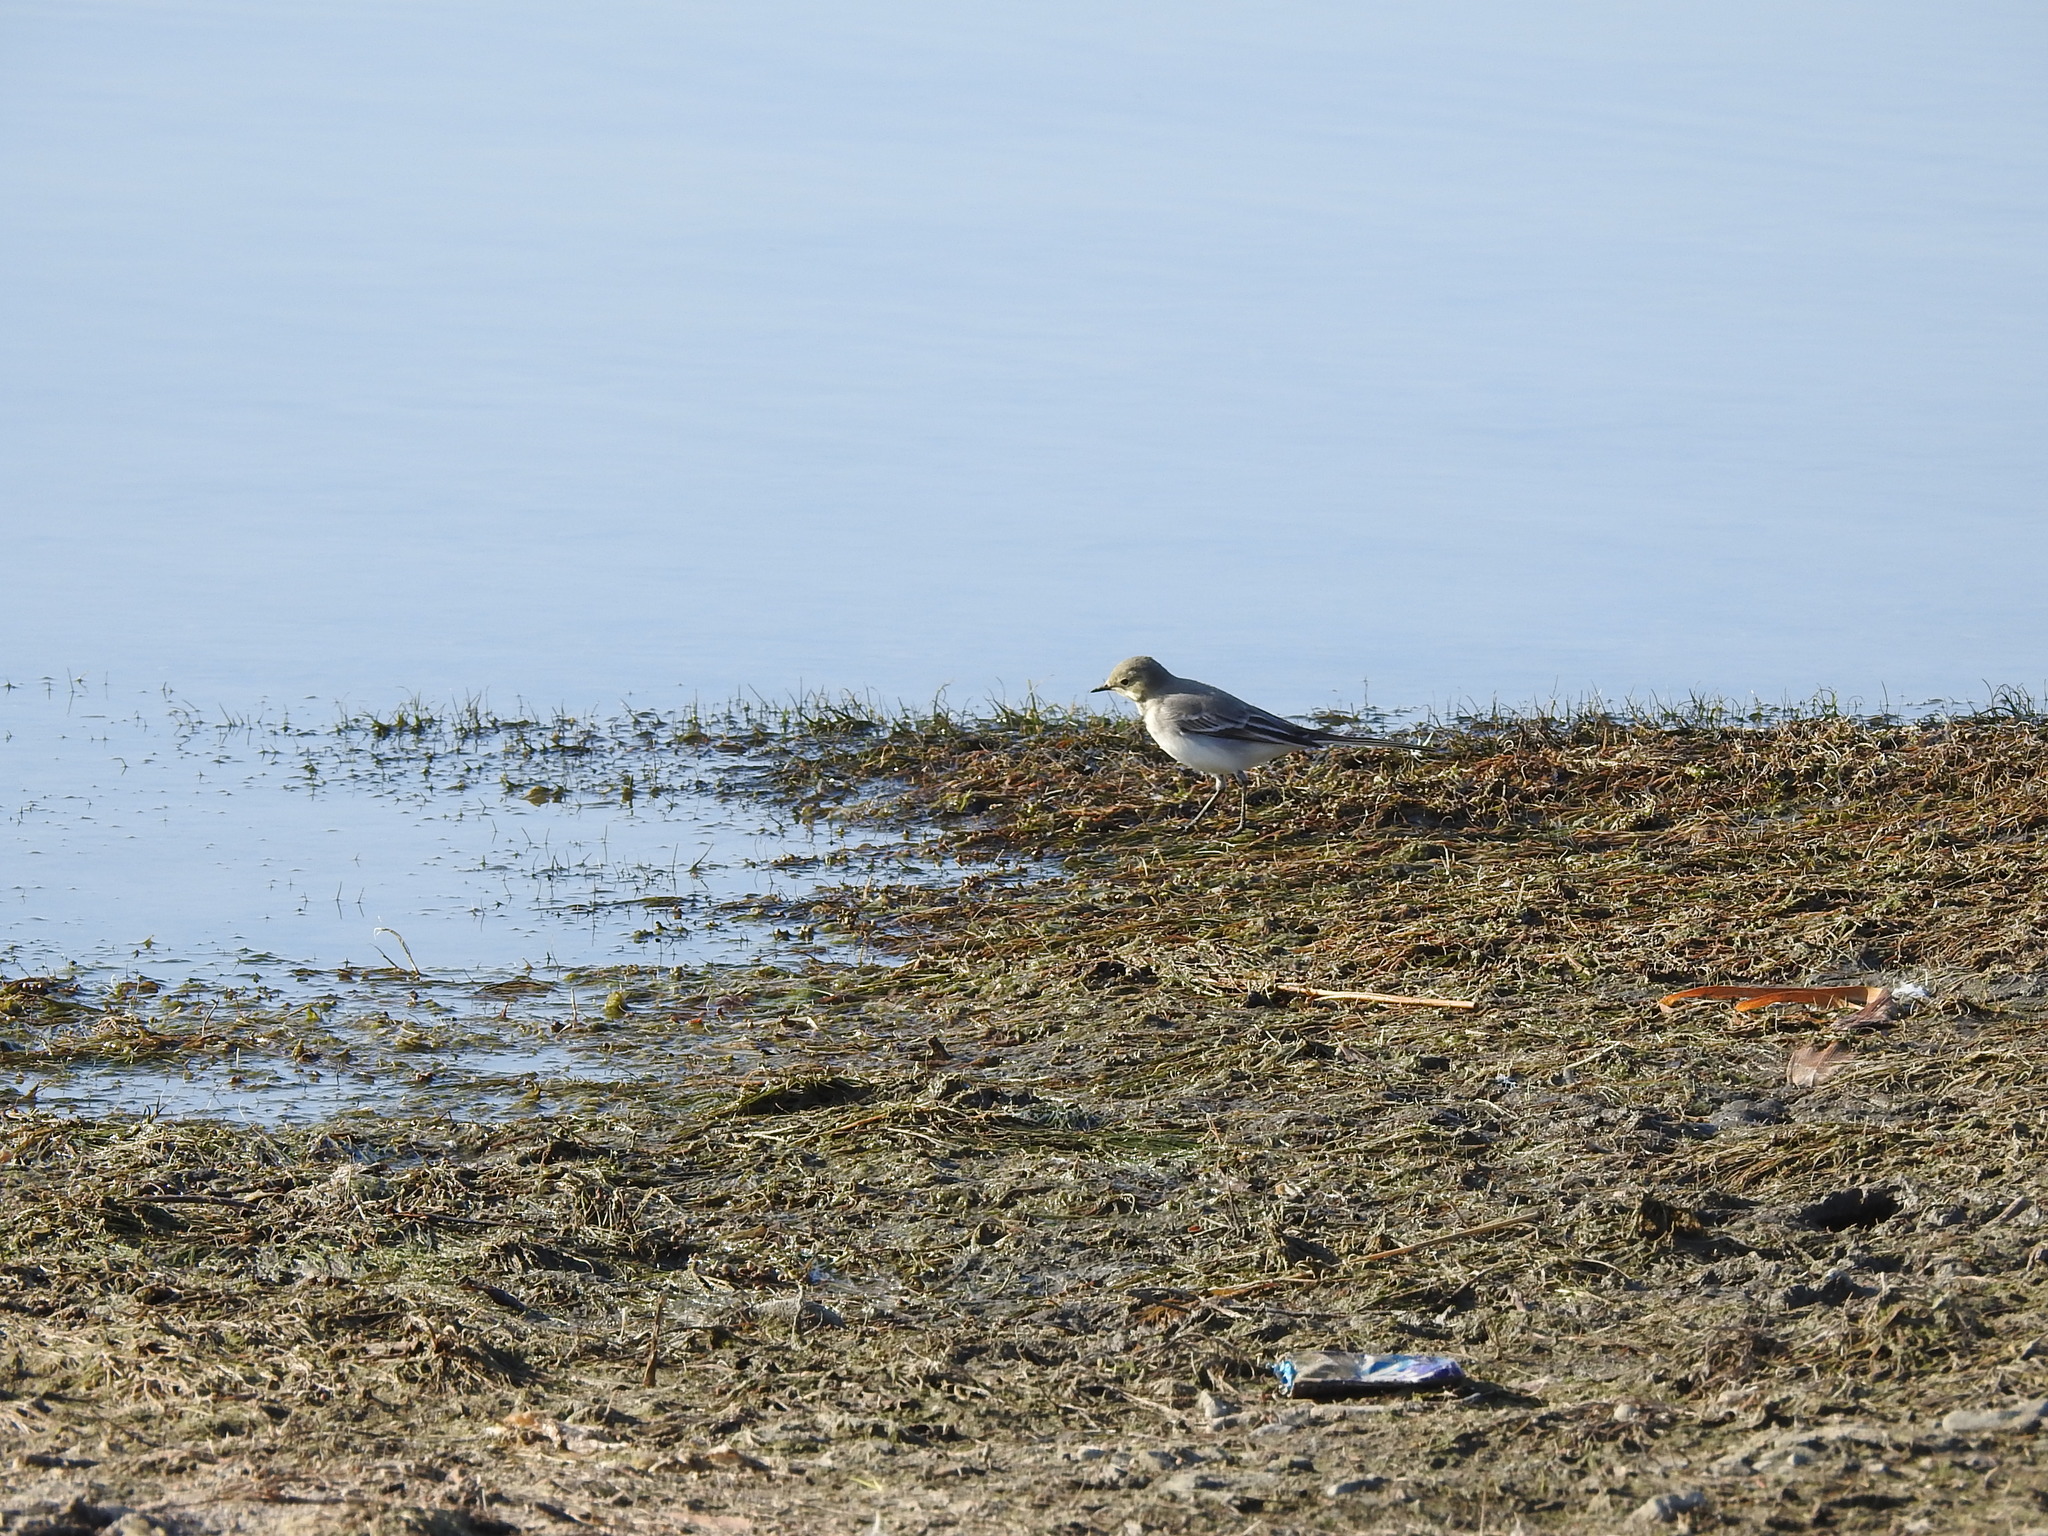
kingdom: Animalia
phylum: Chordata
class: Aves
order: Passeriformes
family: Motacillidae
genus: Motacilla
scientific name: Motacilla alba
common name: White wagtail
